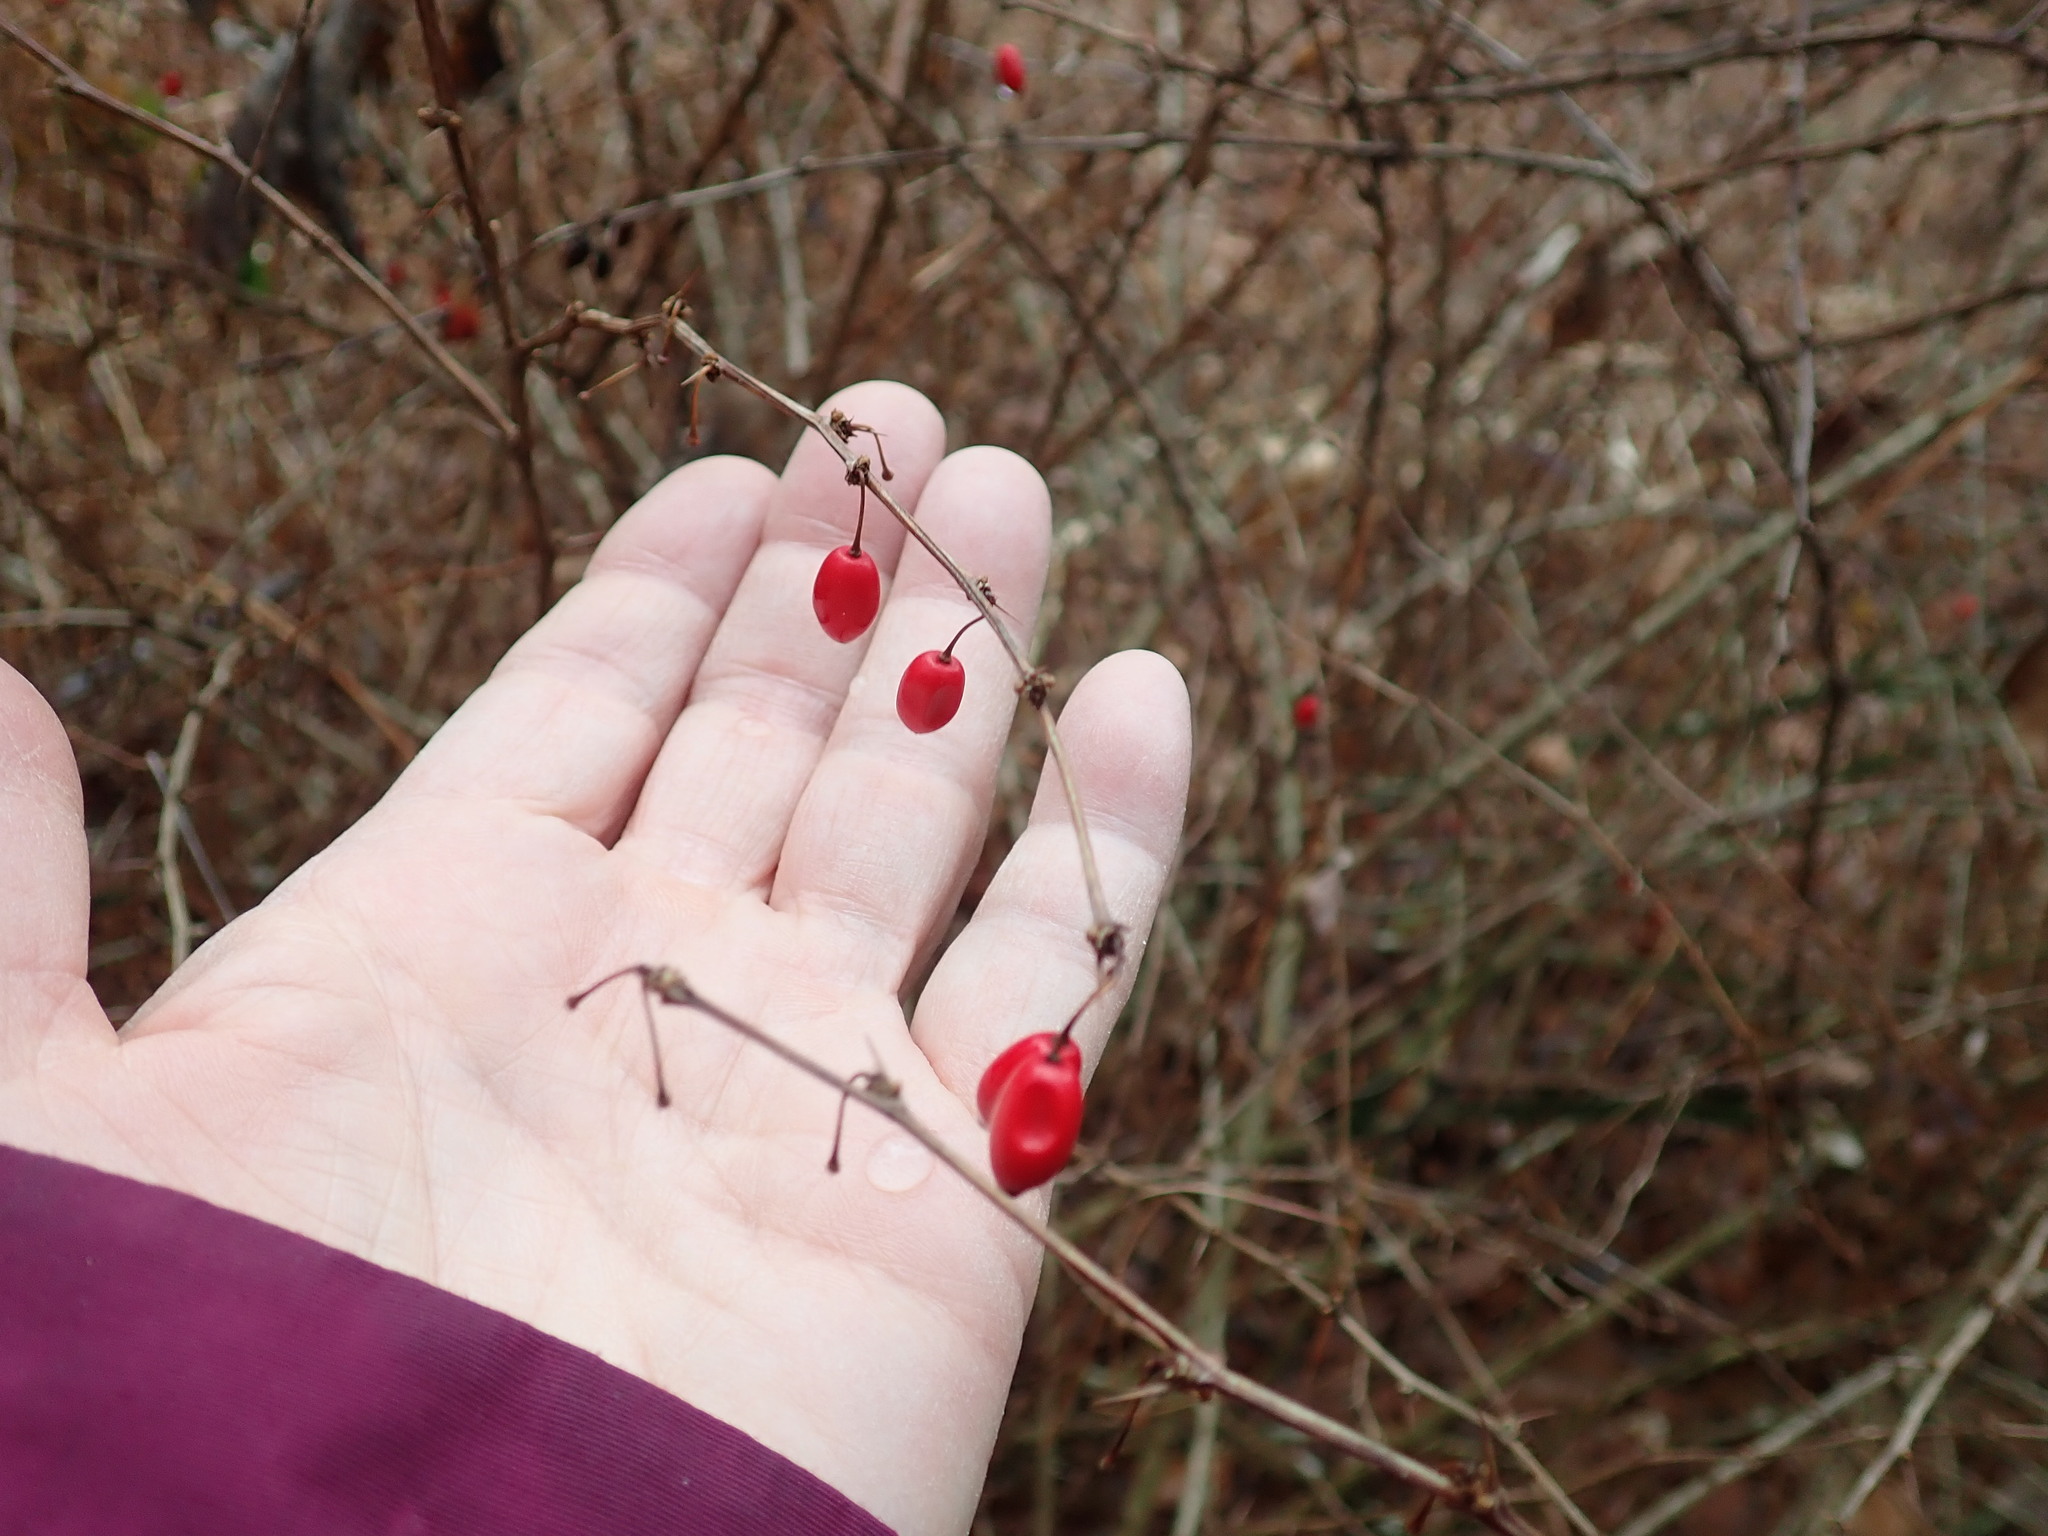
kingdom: Plantae
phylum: Tracheophyta
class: Magnoliopsida
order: Ranunculales
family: Berberidaceae
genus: Berberis
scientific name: Berberis thunbergii
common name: Japanese barberry
